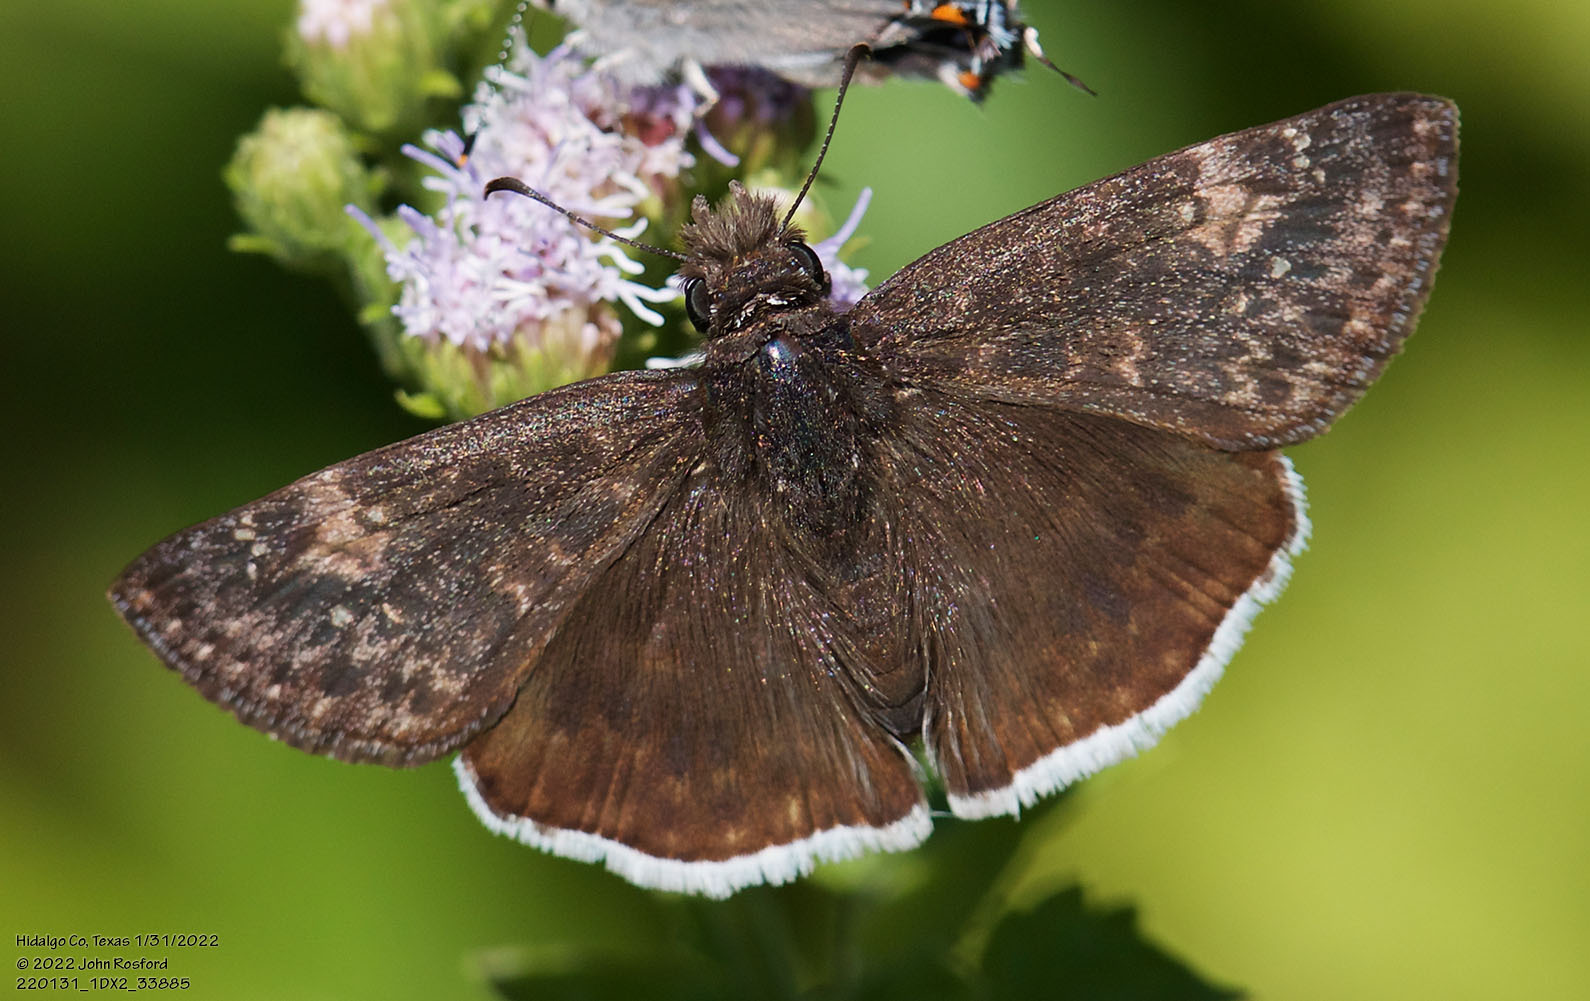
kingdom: Animalia
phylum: Arthropoda
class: Insecta
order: Lepidoptera
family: Hesperiidae
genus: Erynnis
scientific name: Erynnis funeralis
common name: Funereal duskywing
